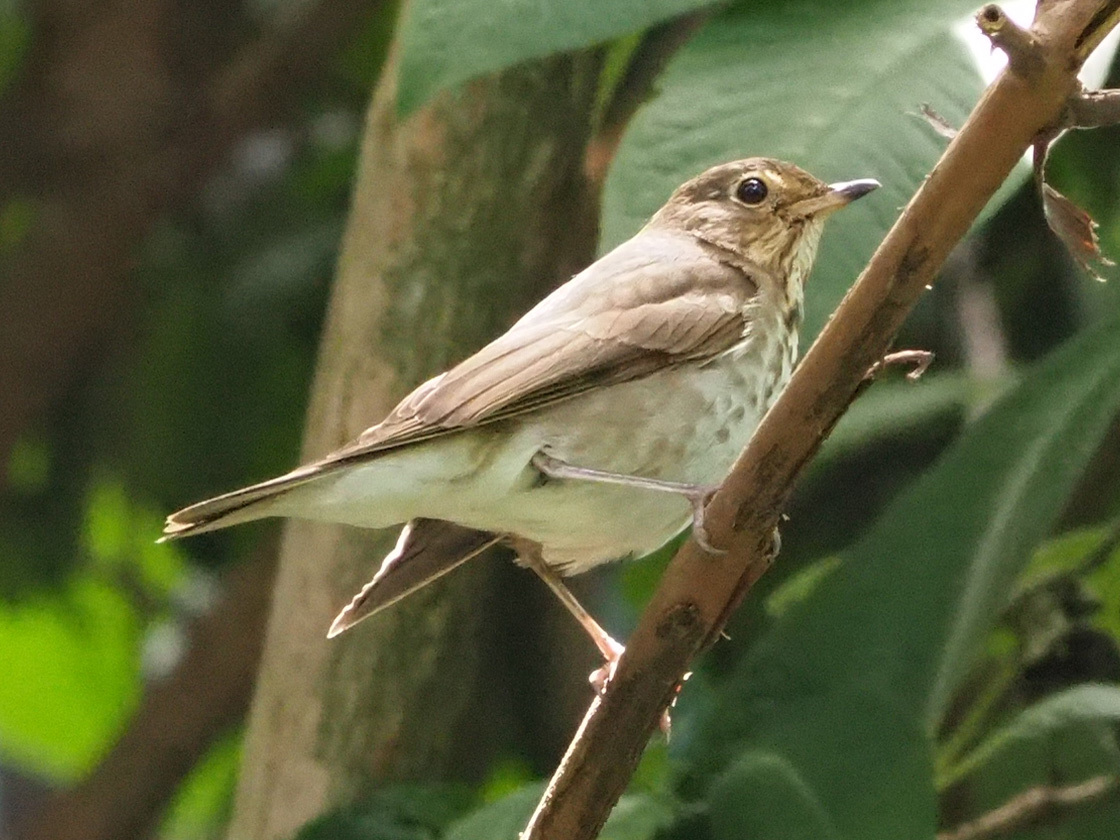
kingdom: Animalia
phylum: Chordata
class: Aves
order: Passeriformes
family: Turdidae
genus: Catharus
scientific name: Catharus ustulatus
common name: Swainson's thrush
